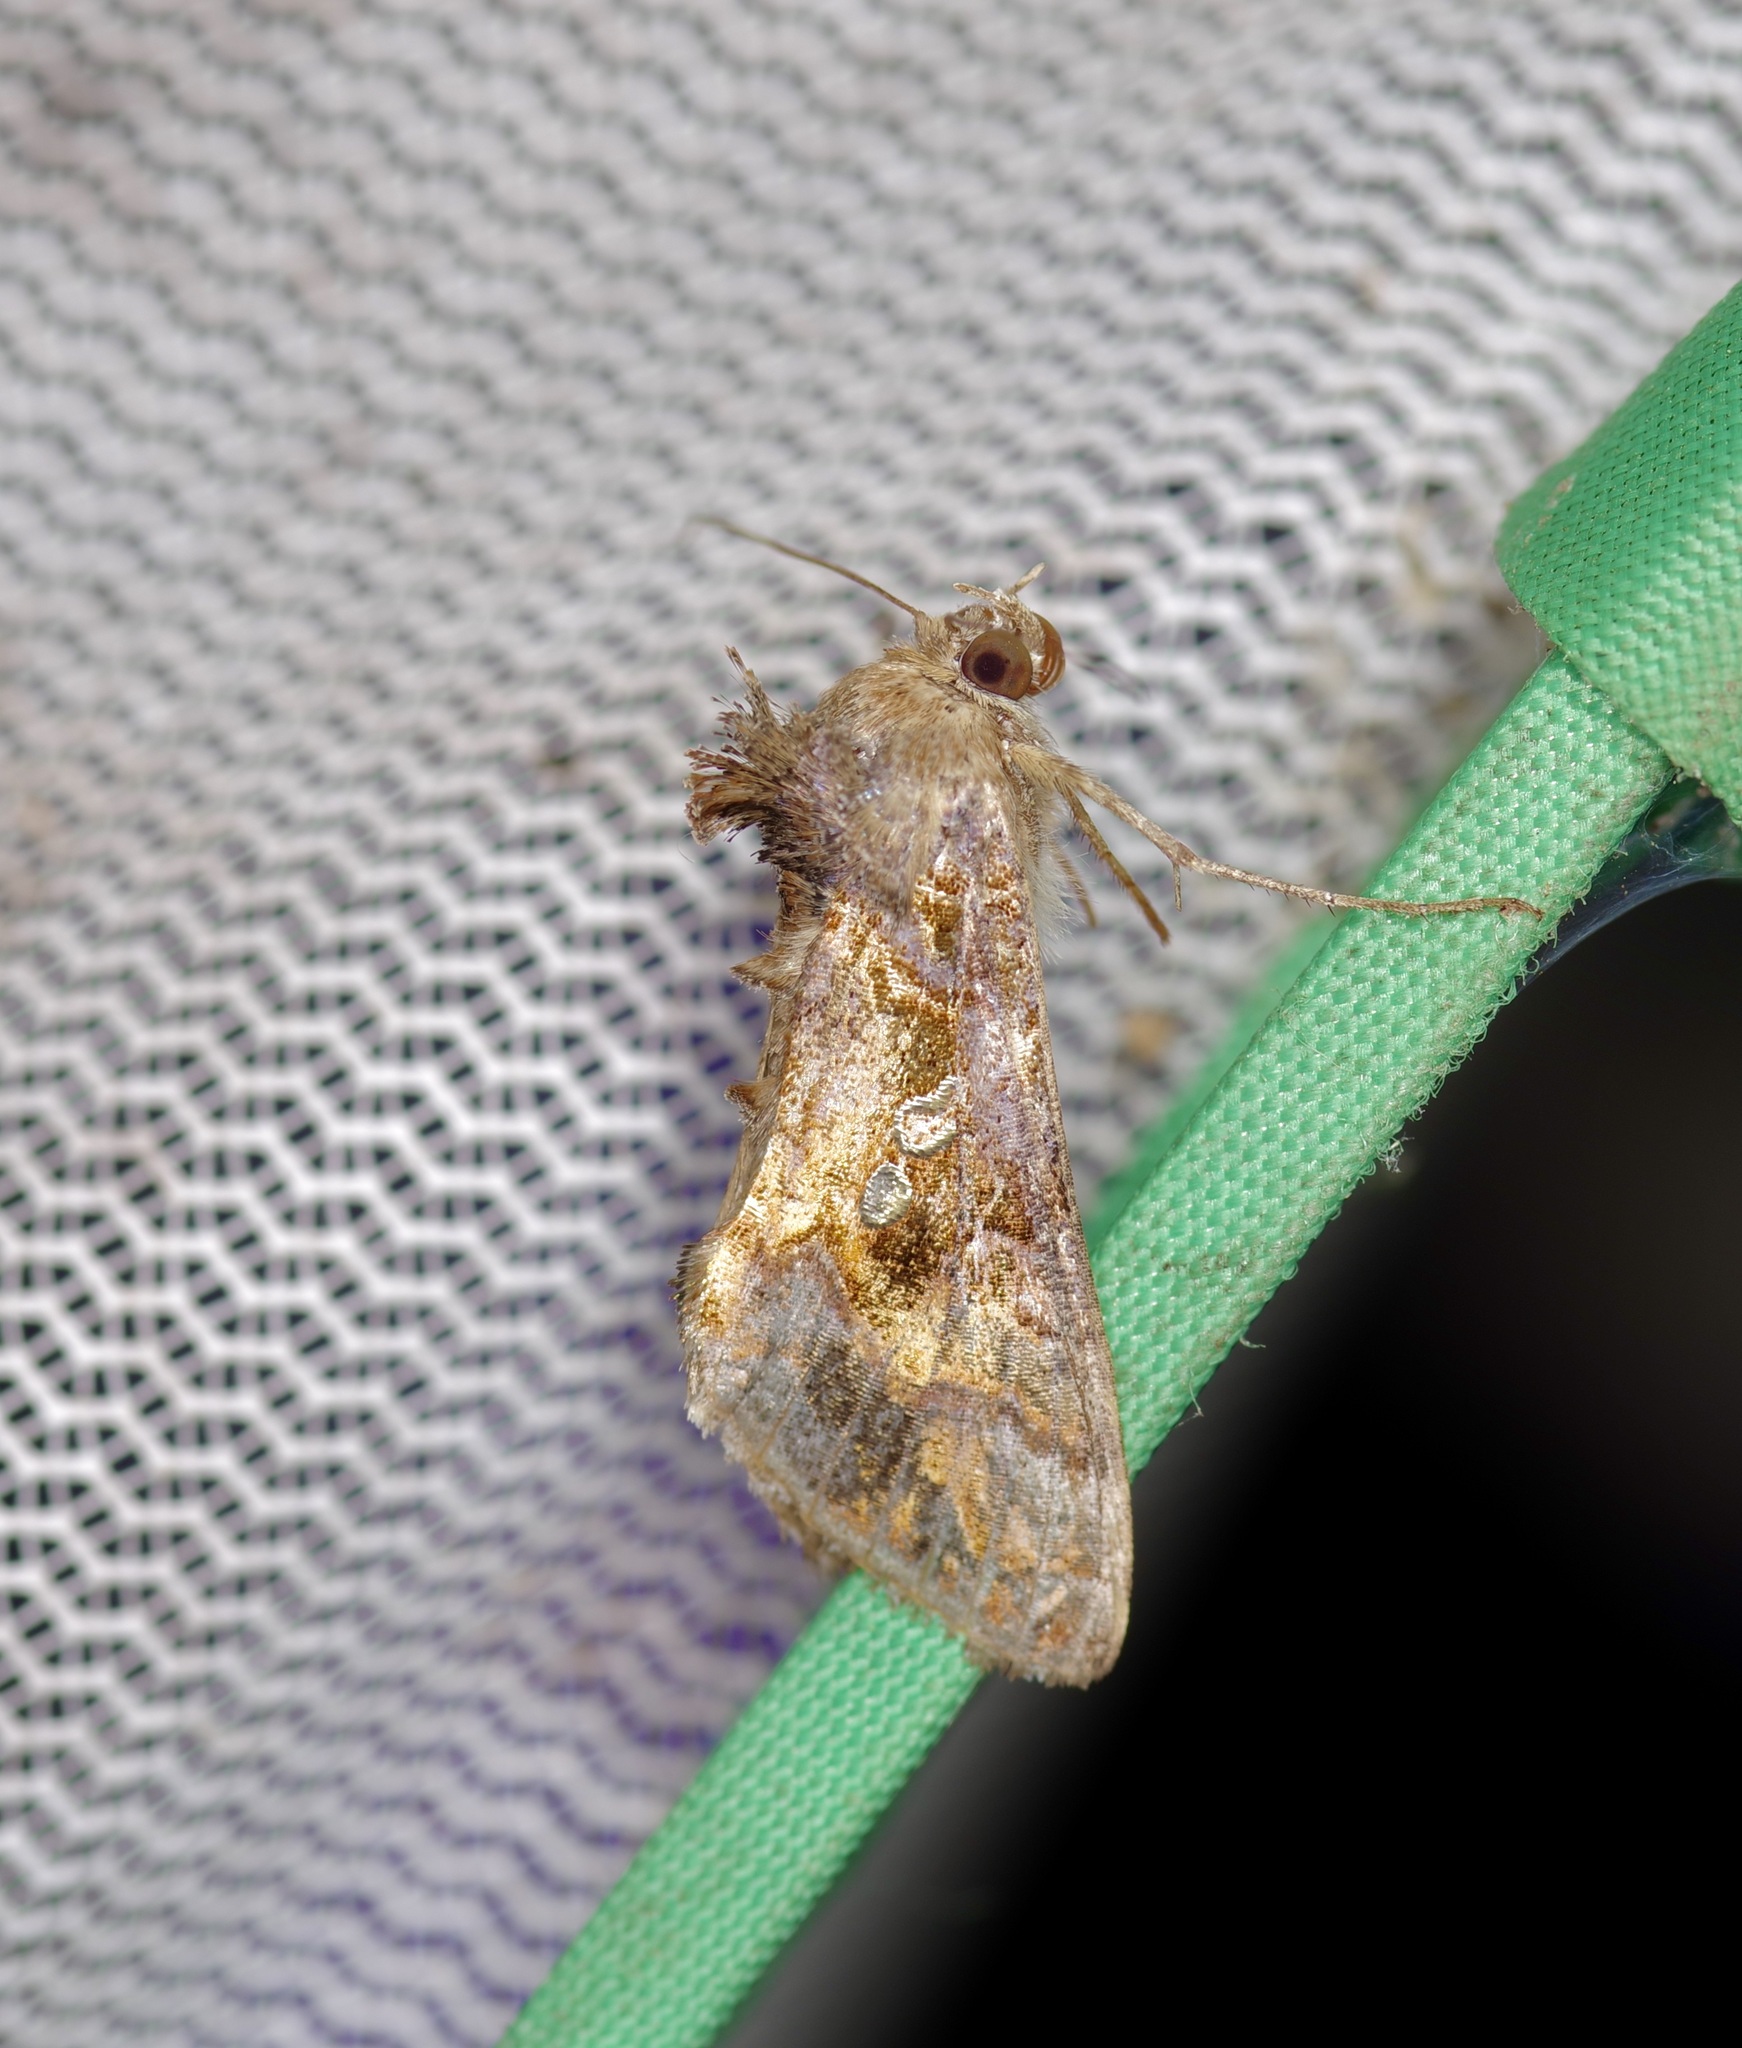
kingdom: Animalia
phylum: Arthropoda
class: Insecta
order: Lepidoptera
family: Noctuidae
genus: Chrysodeixis
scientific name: Chrysodeixis includens
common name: Cutworm moth
